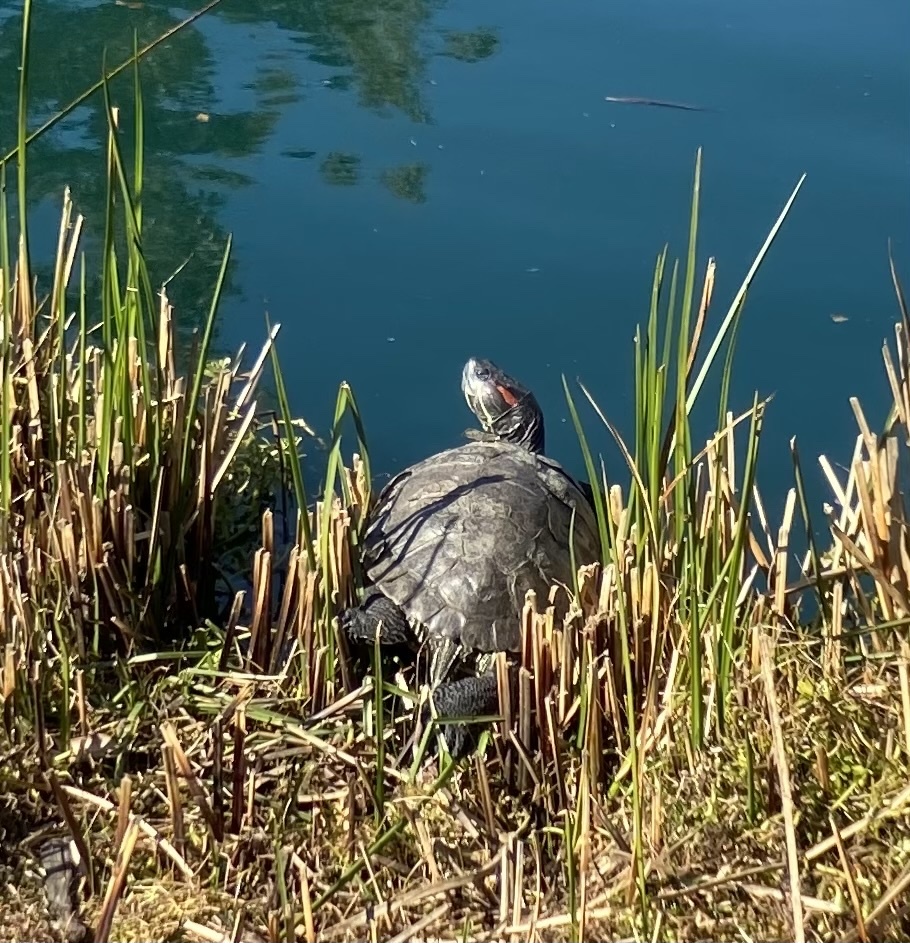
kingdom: Animalia
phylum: Chordata
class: Testudines
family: Emydidae
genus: Trachemys
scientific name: Trachemys scripta
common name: Slider
